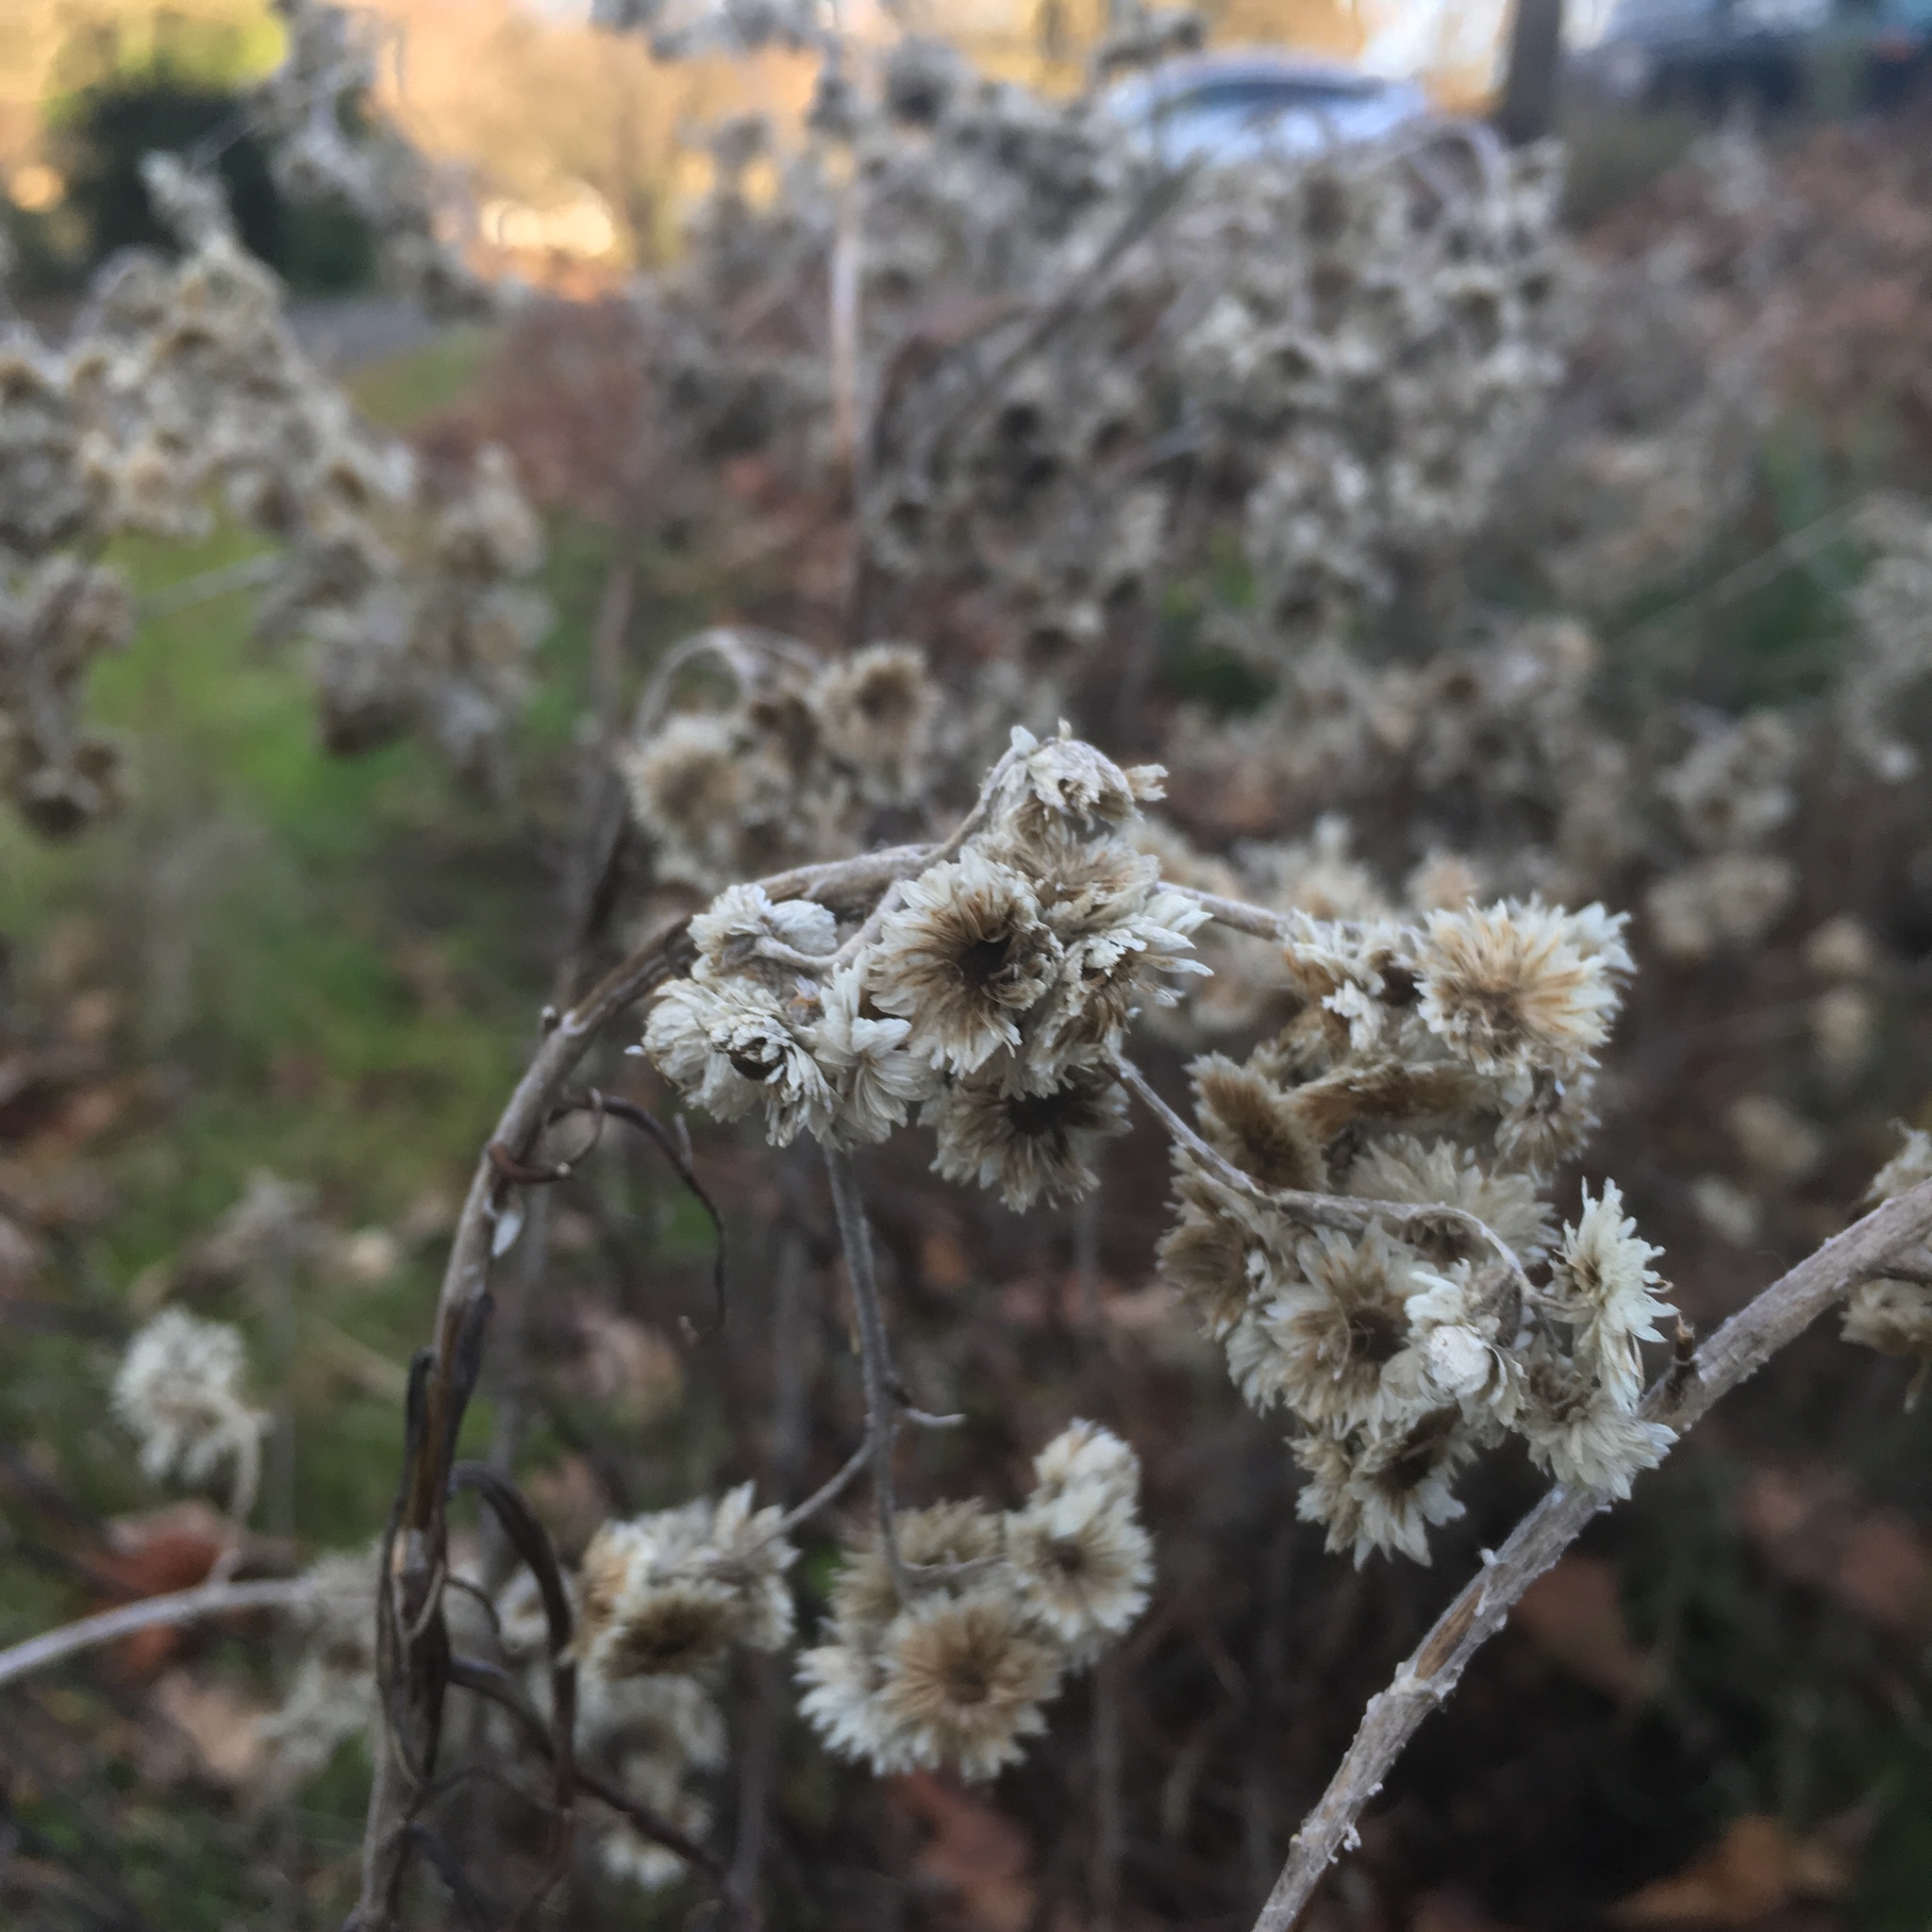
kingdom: Plantae
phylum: Tracheophyta
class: Magnoliopsida
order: Asterales
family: Asteraceae
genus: Anaphalis
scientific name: Anaphalis margaritacea
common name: Pearly everlasting
